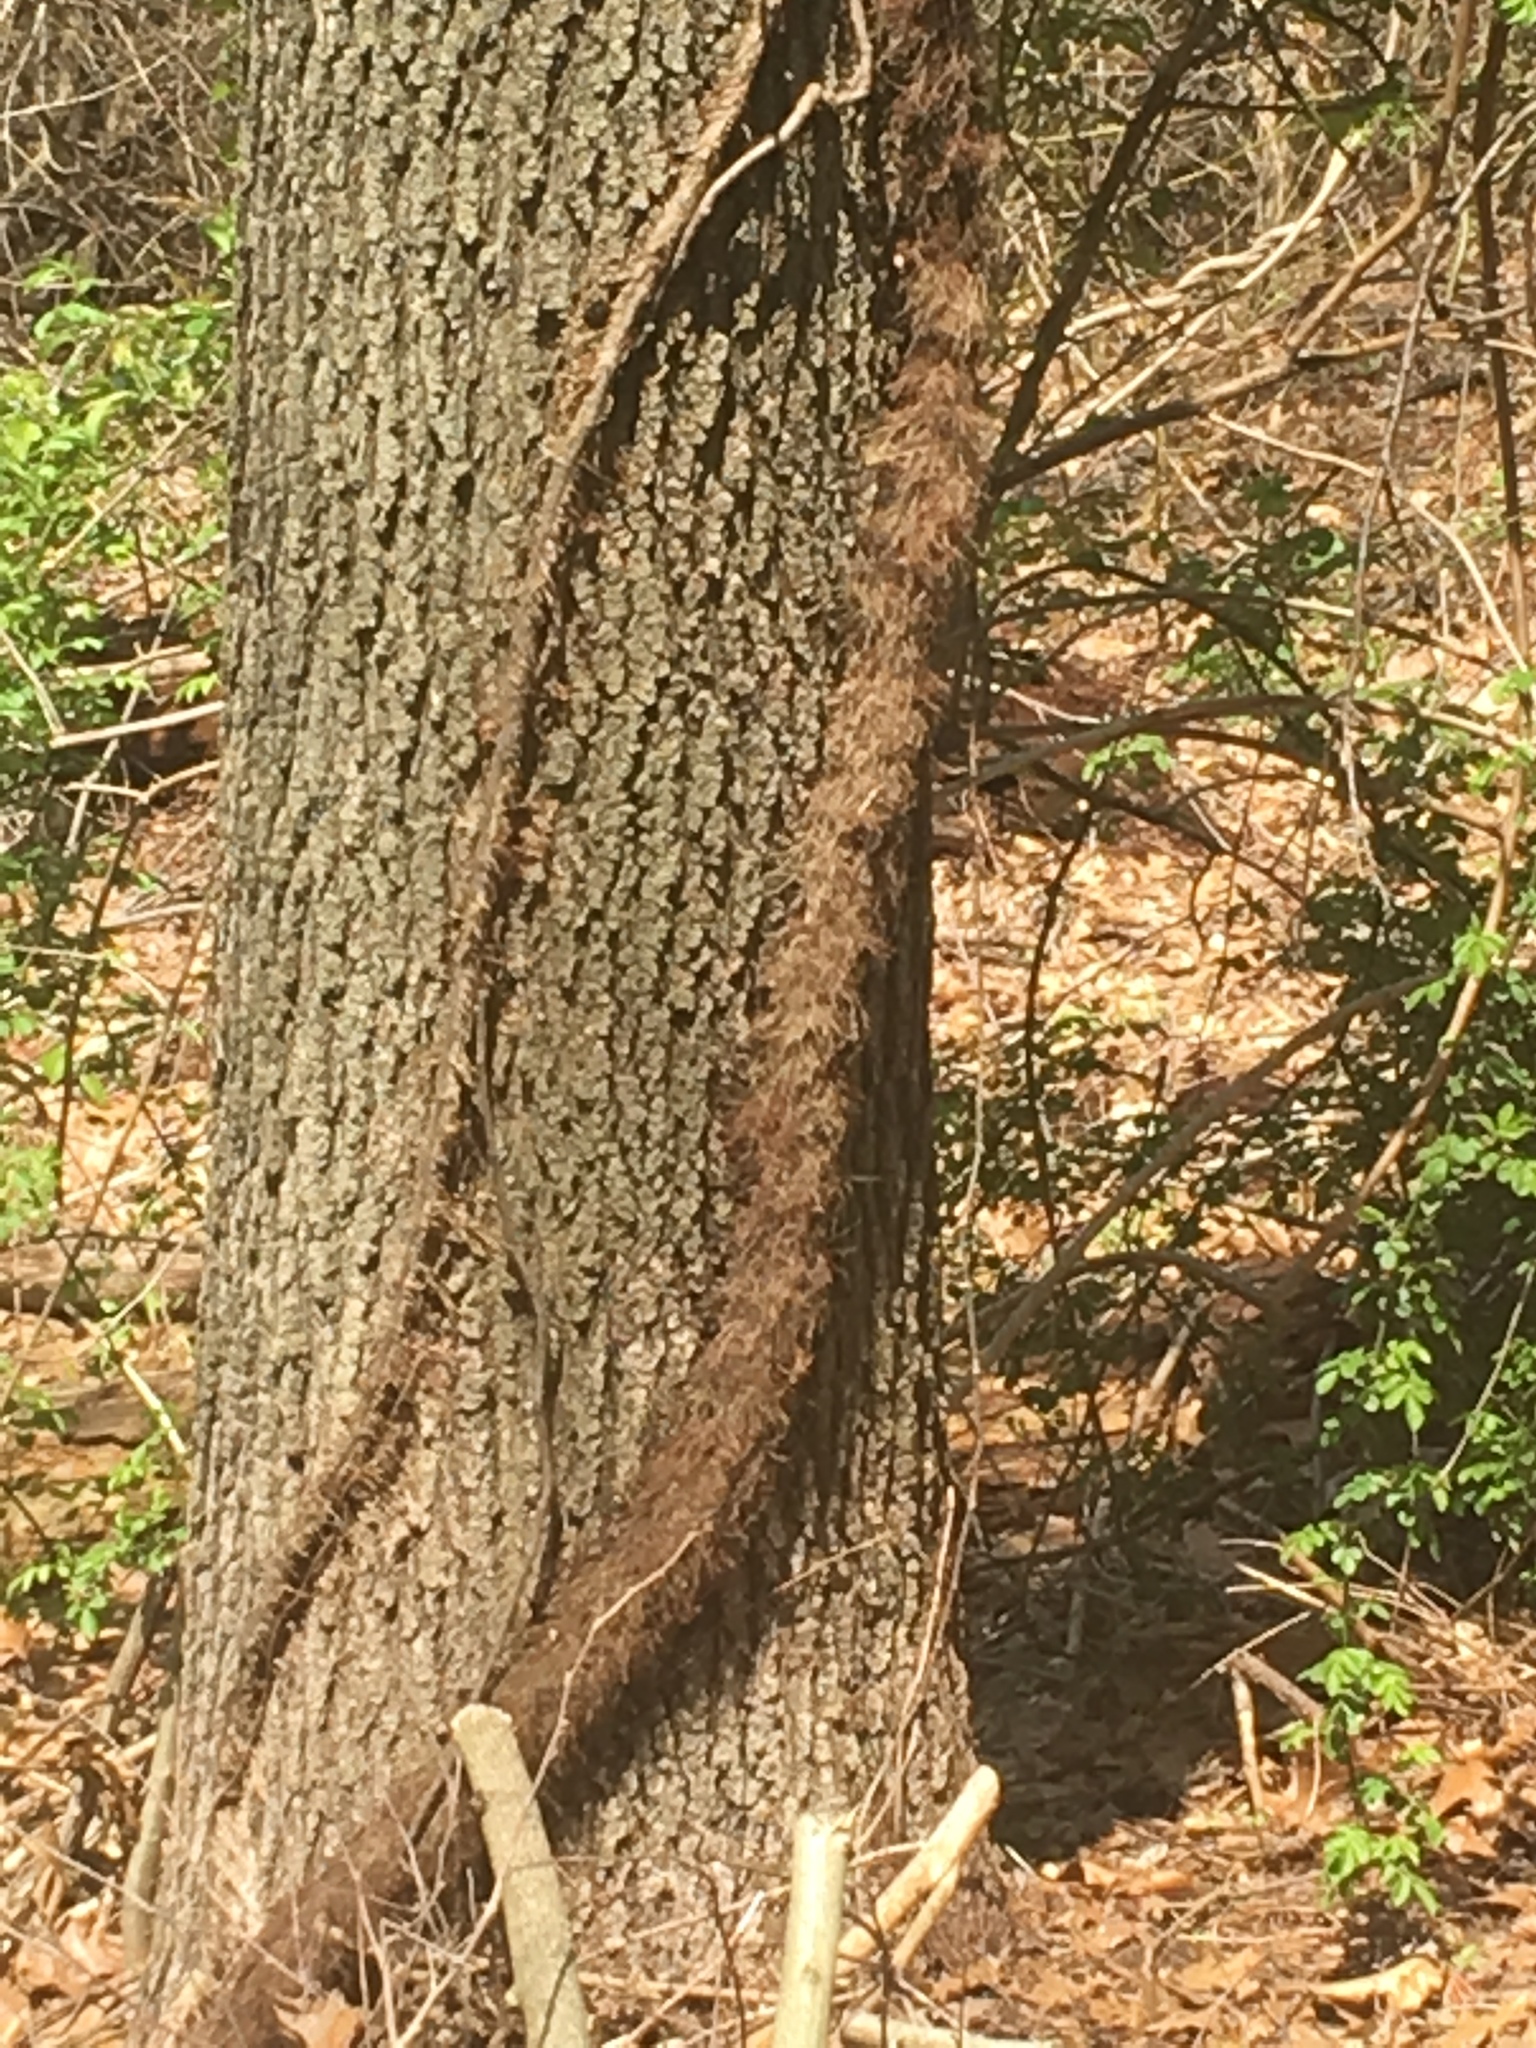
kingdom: Plantae
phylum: Tracheophyta
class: Magnoliopsida
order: Sapindales
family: Anacardiaceae
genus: Toxicodendron
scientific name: Toxicodendron radicans
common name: Poison ivy
